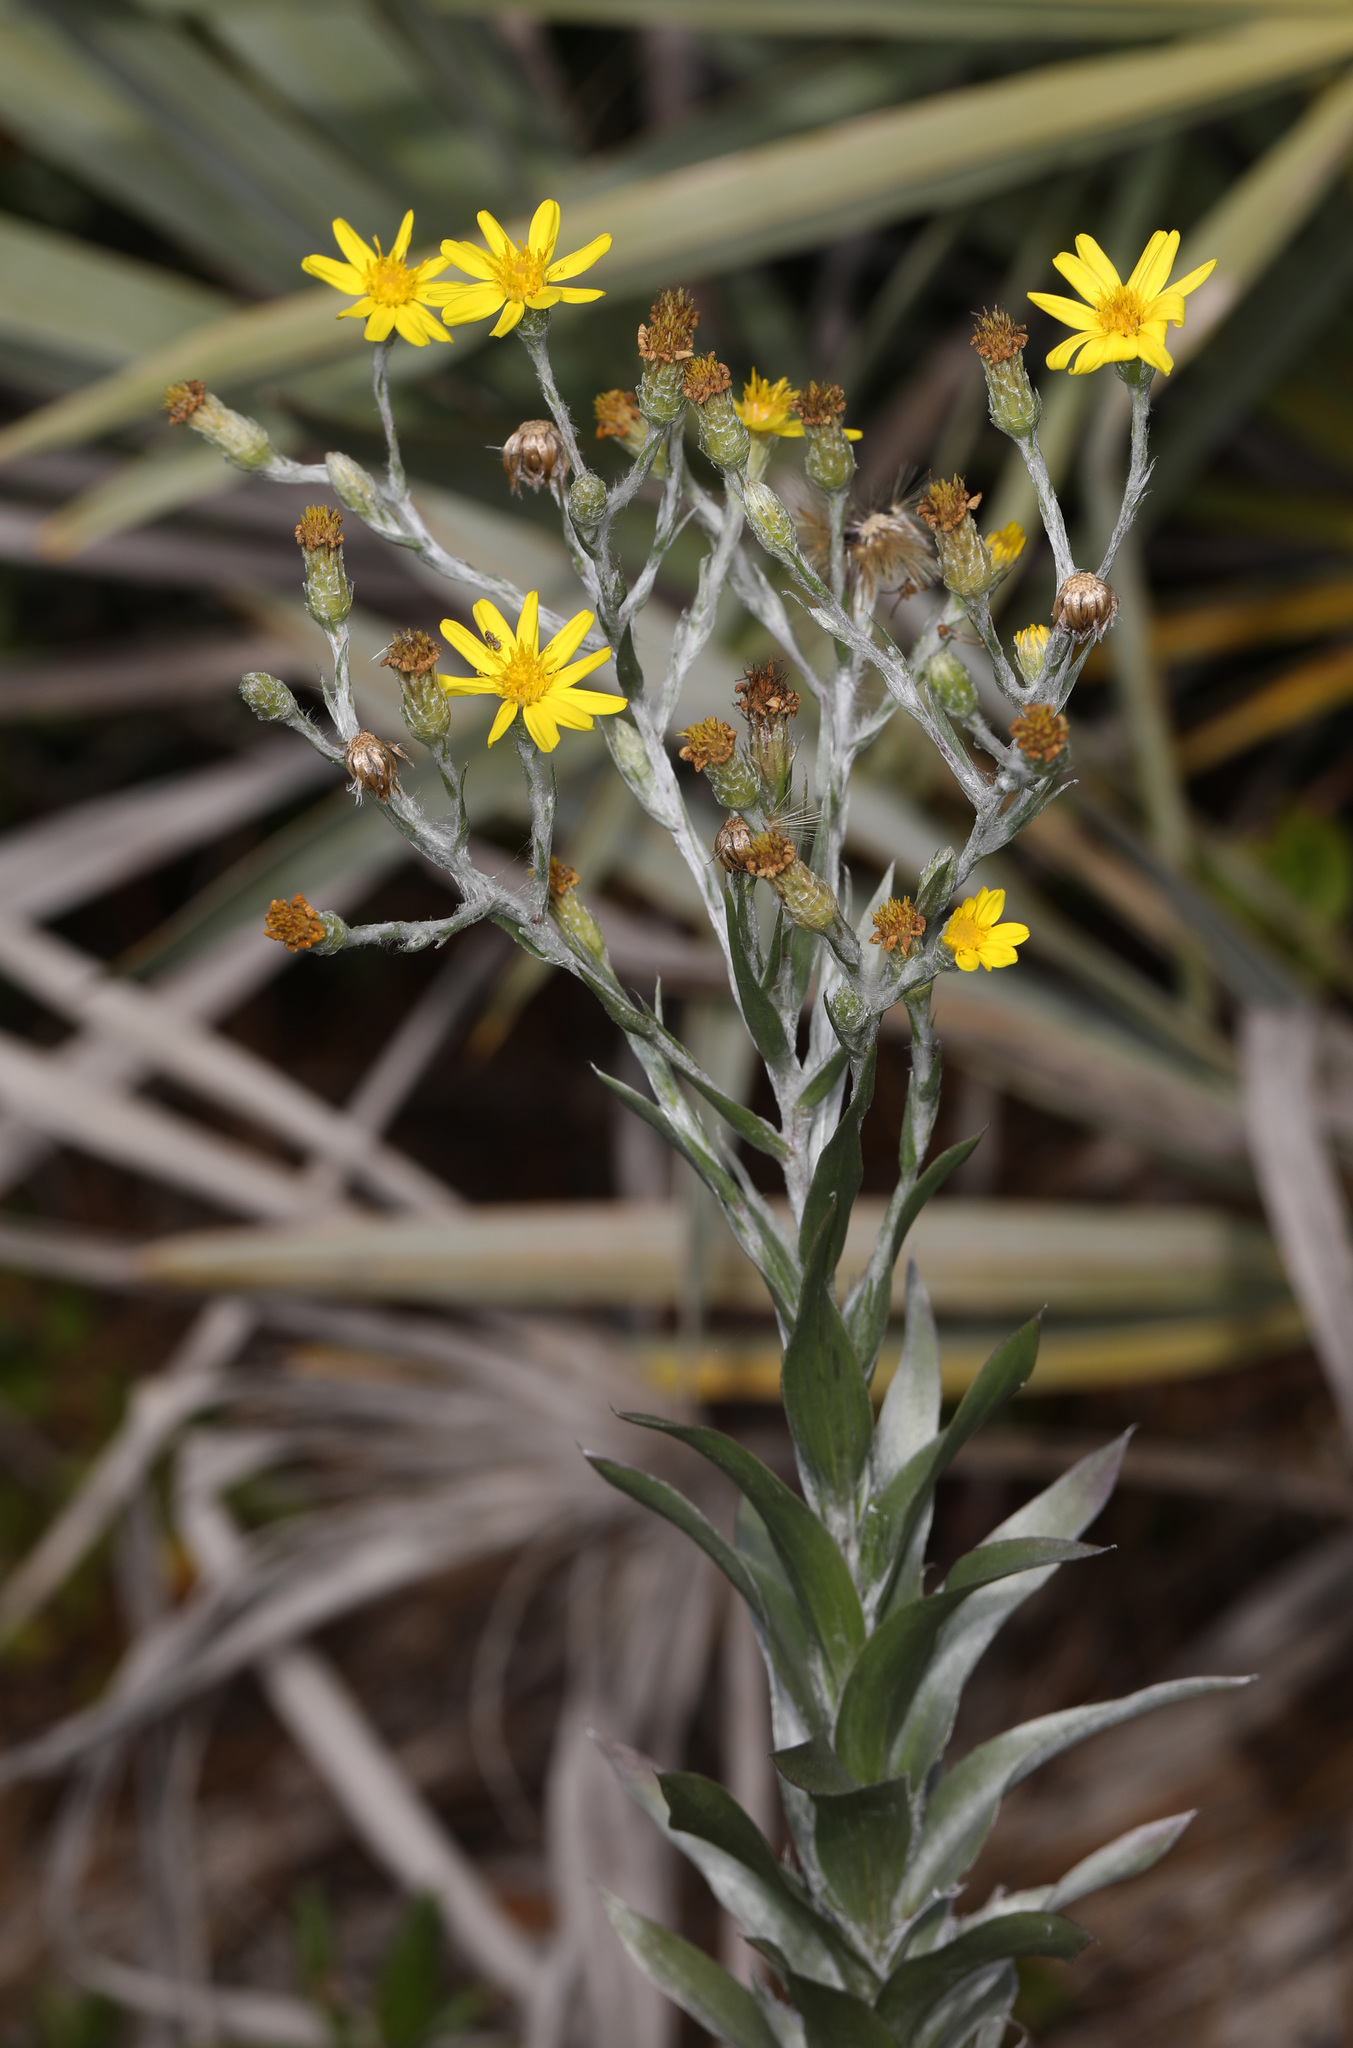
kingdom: Plantae
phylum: Tracheophyta
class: Magnoliopsida
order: Asterales
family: Asteraceae
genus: Pityopsis
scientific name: Pityopsis latifolia
